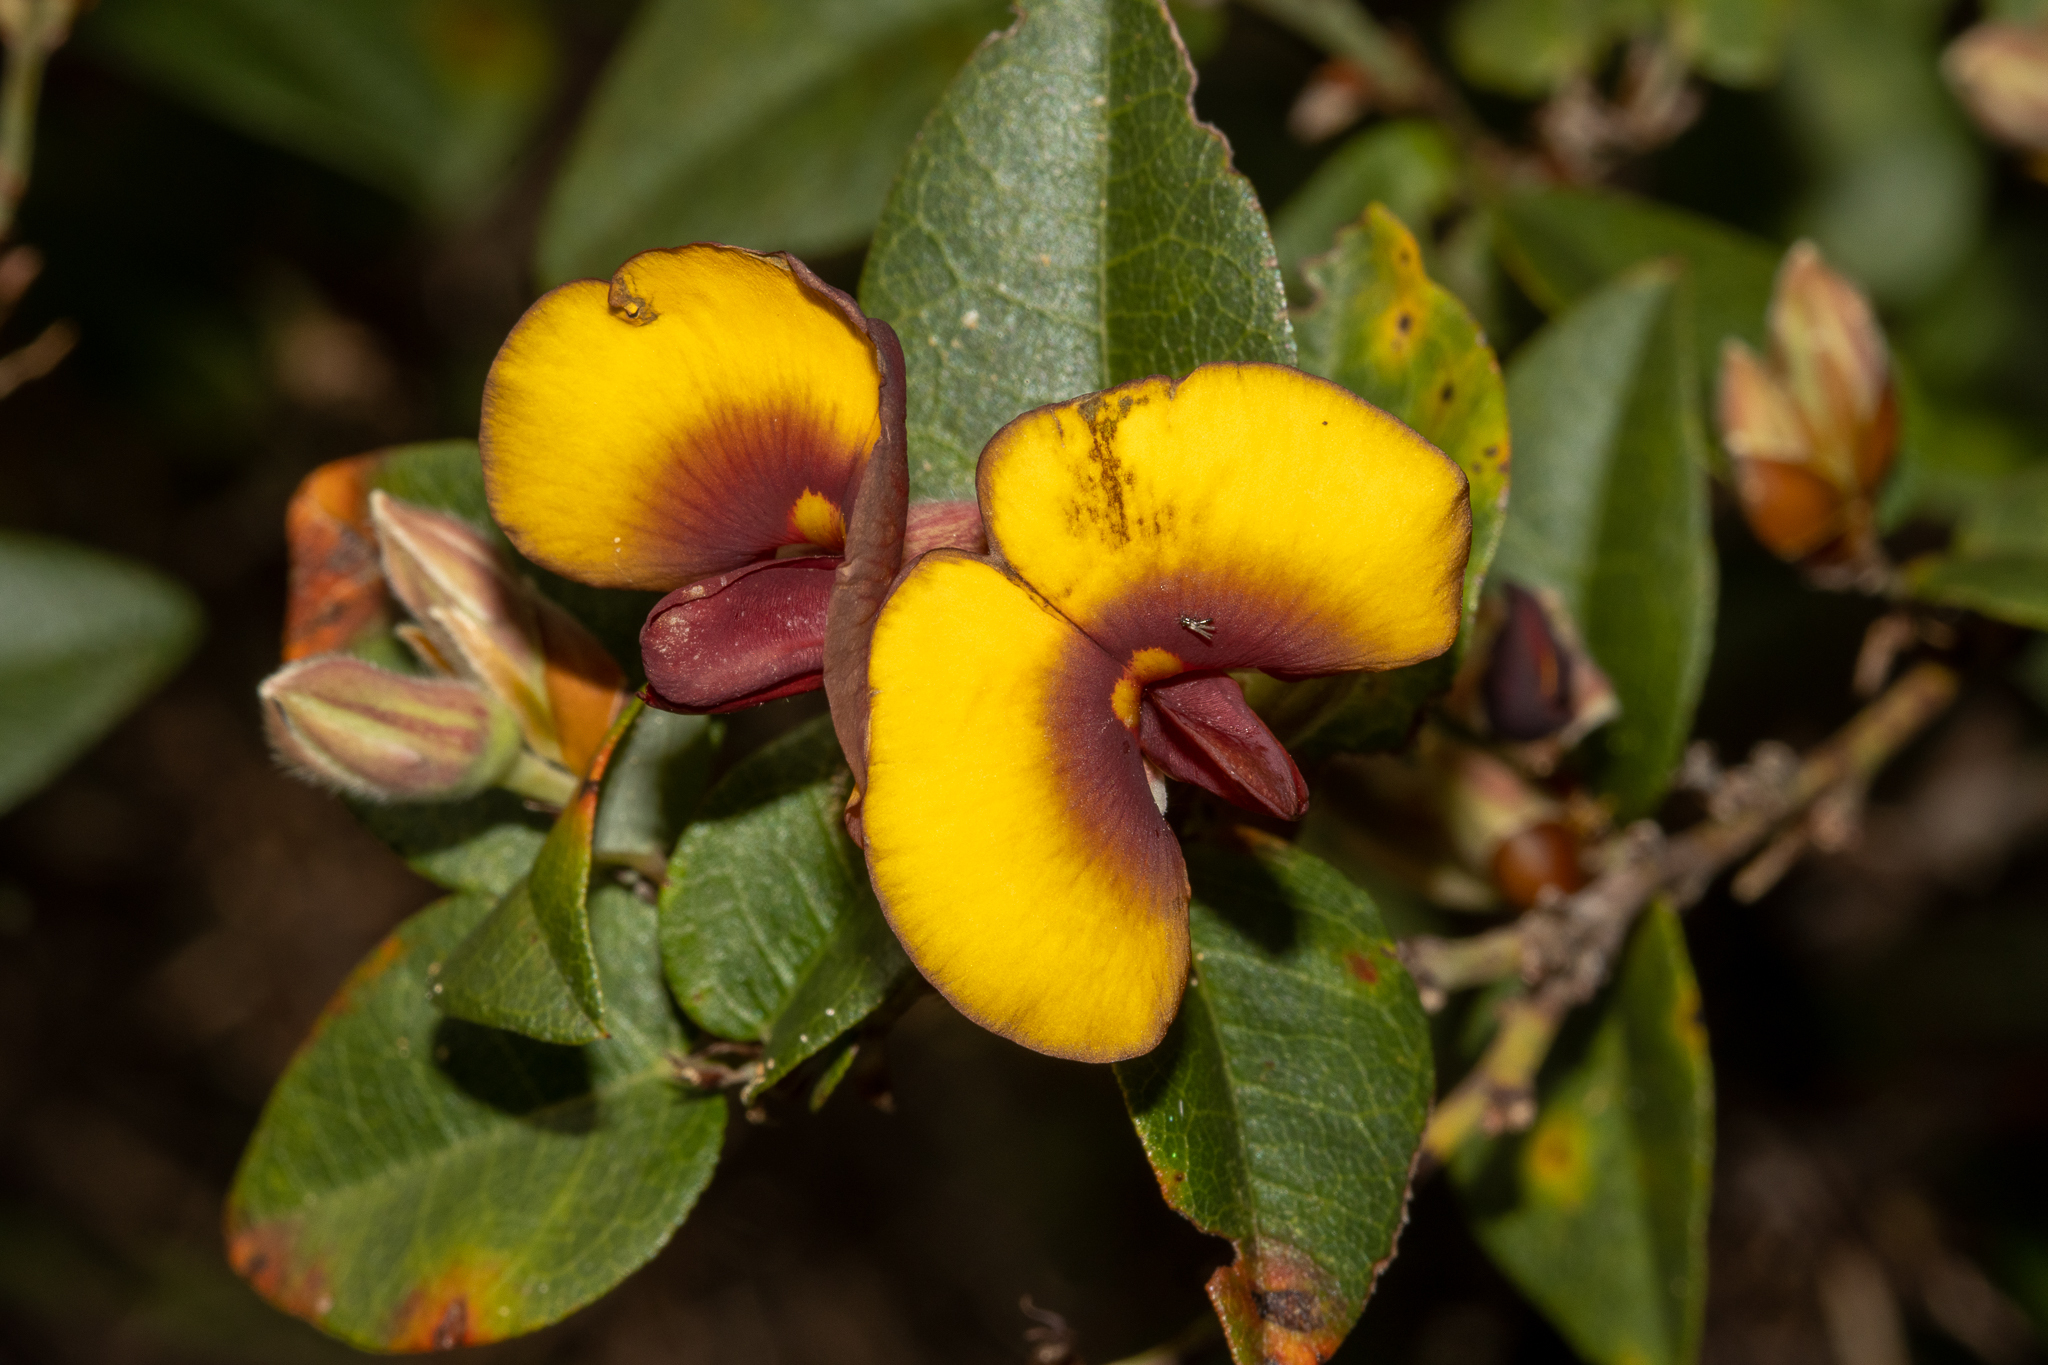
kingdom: Plantae
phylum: Tracheophyta
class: Magnoliopsida
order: Fabales
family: Fabaceae
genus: Bossiaea
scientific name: Bossiaea ornata
